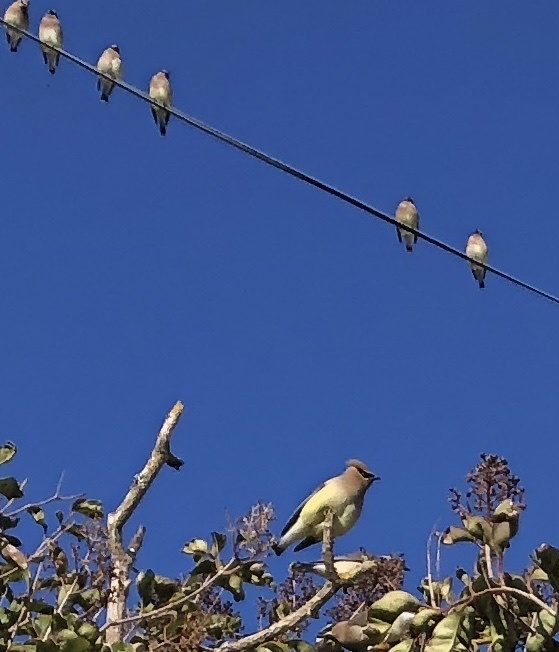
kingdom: Animalia
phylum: Chordata
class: Aves
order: Passeriformes
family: Bombycillidae
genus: Bombycilla
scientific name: Bombycilla cedrorum
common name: Cedar waxwing
